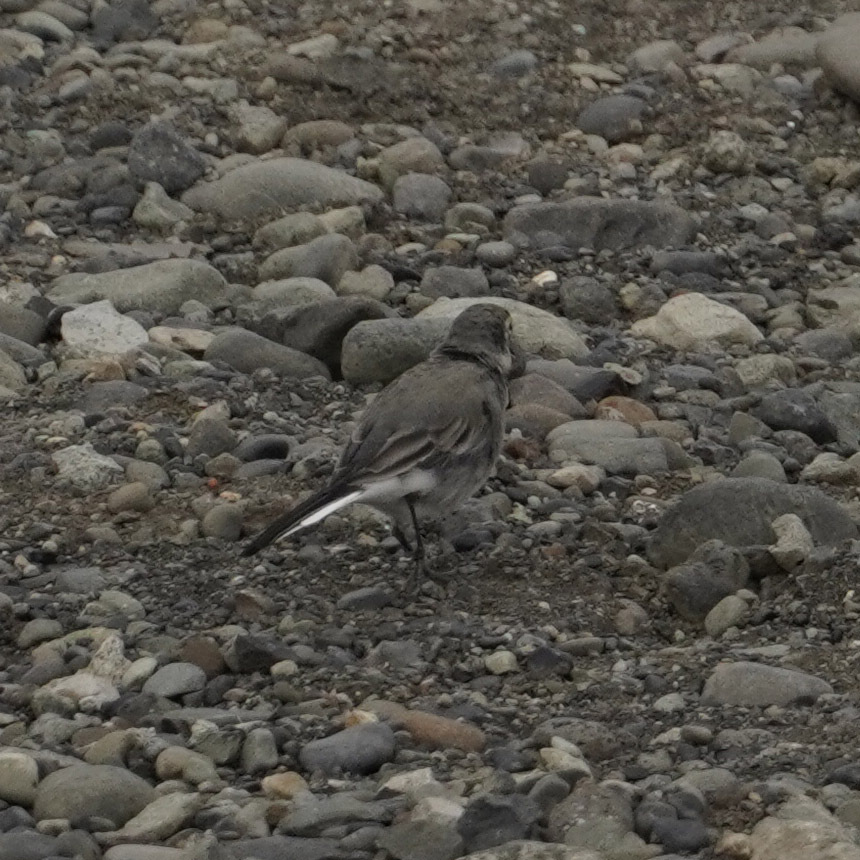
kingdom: Animalia
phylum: Chordata
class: Aves
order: Passeriformes
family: Motacillidae
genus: Motacilla
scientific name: Motacilla alba
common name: White wagtail
